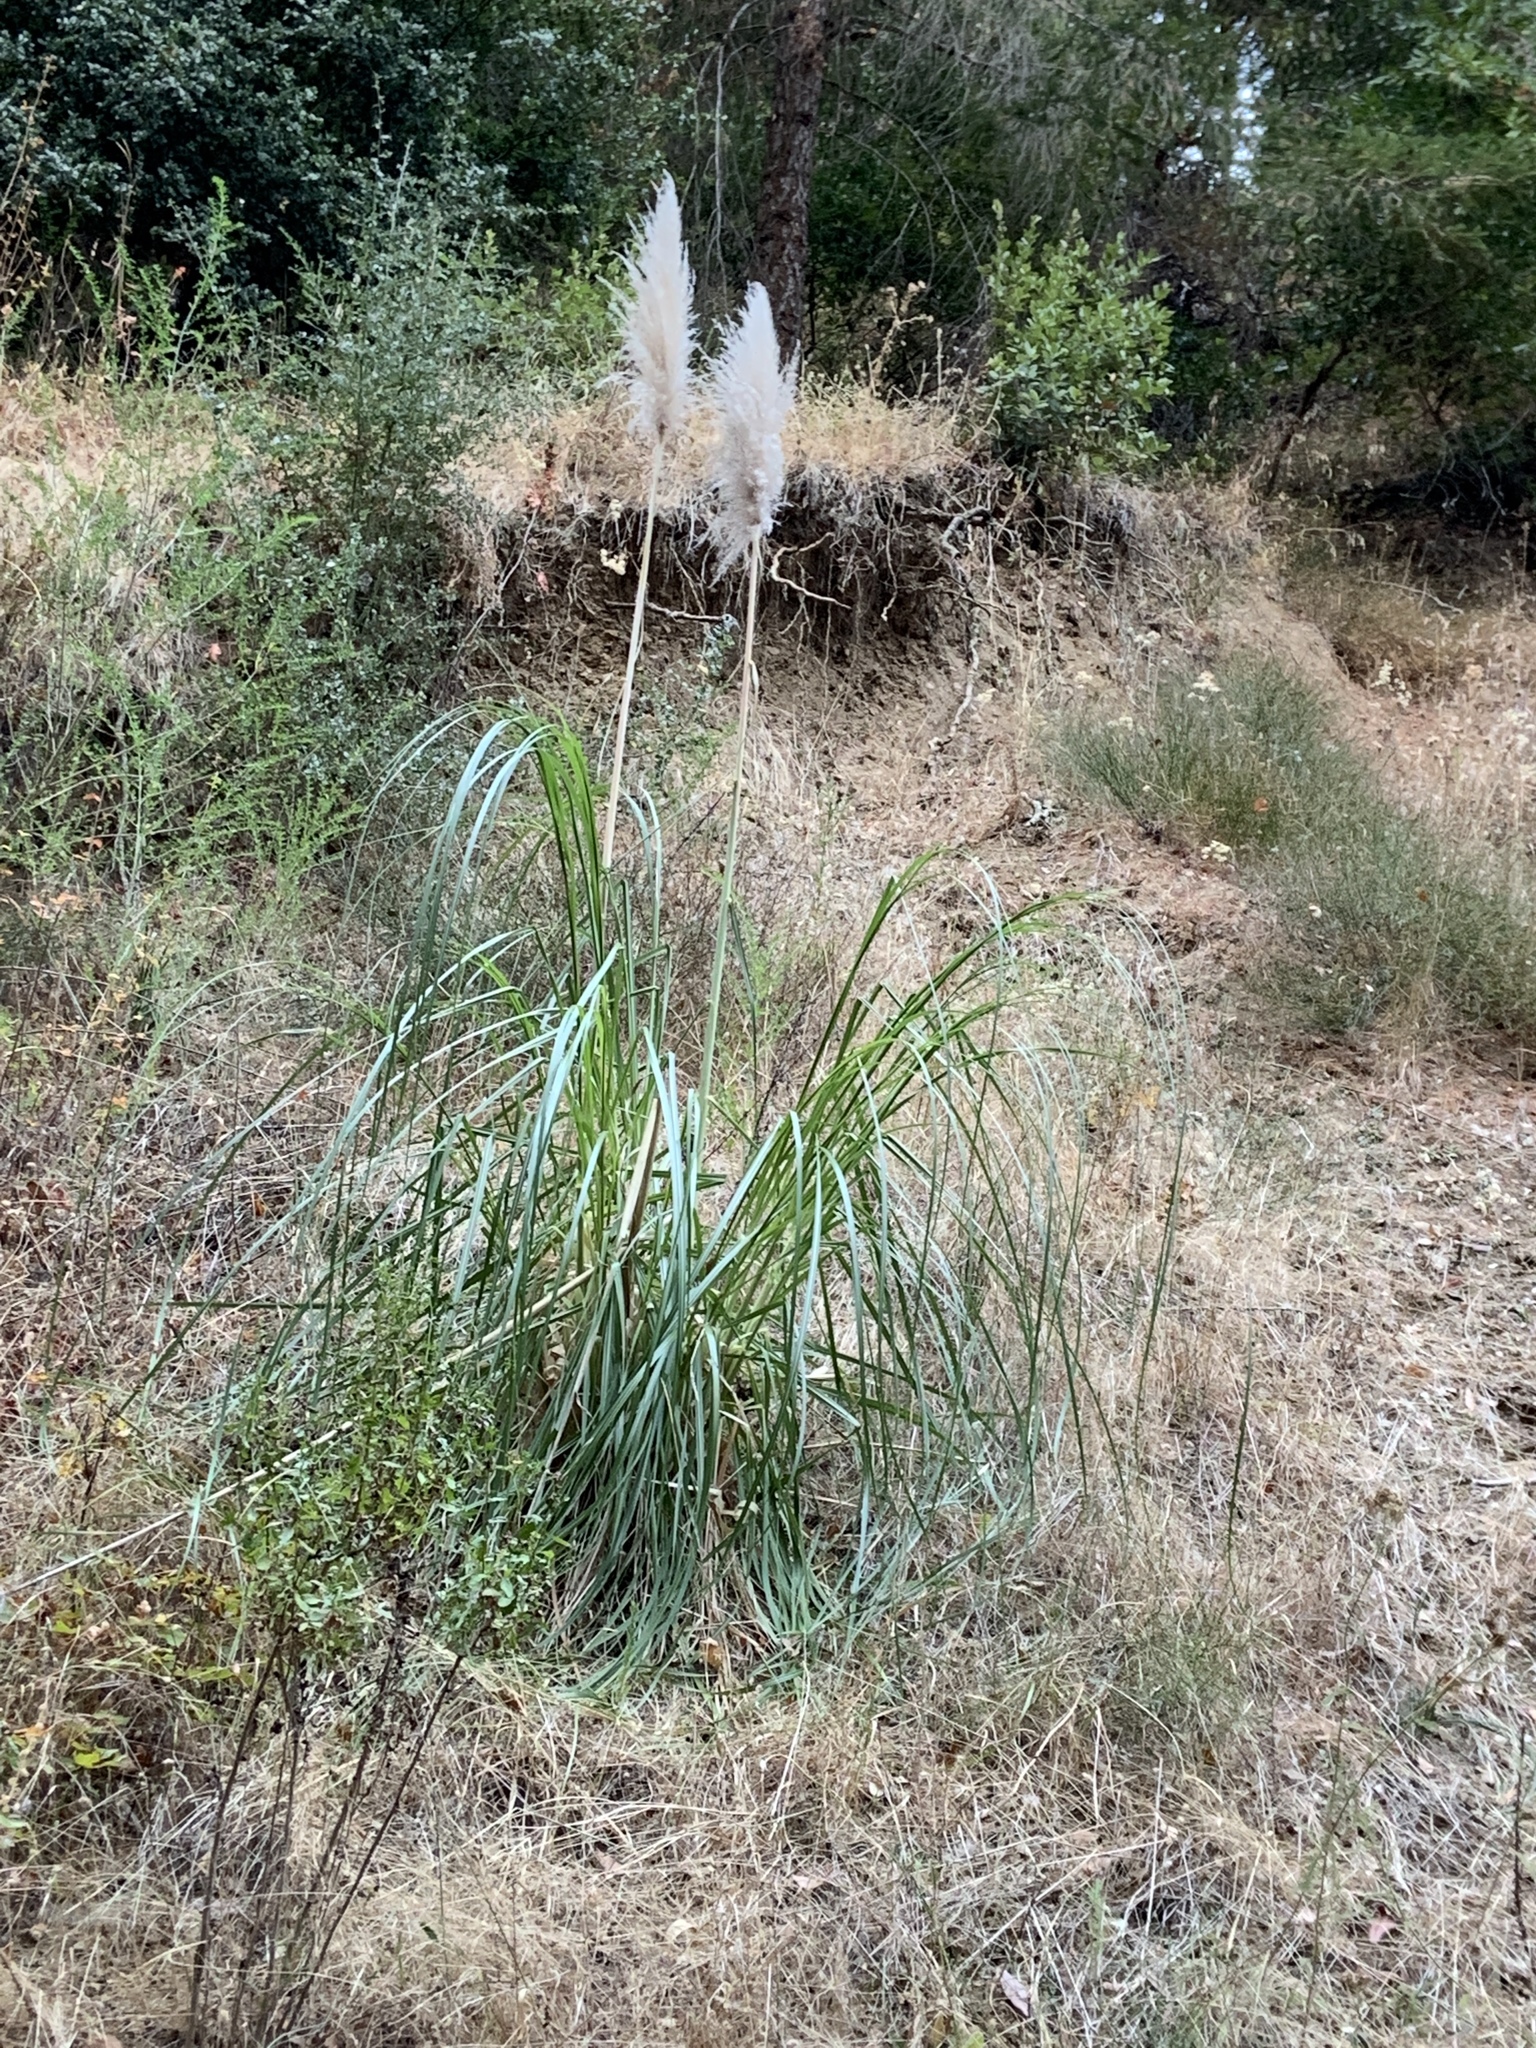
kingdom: Plantae
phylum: Tracheophyta
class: Liliopsida
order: Poales
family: Poaceae
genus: Cortaderia
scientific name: Cortaderia selloana
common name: Uruguayan pampas grass
